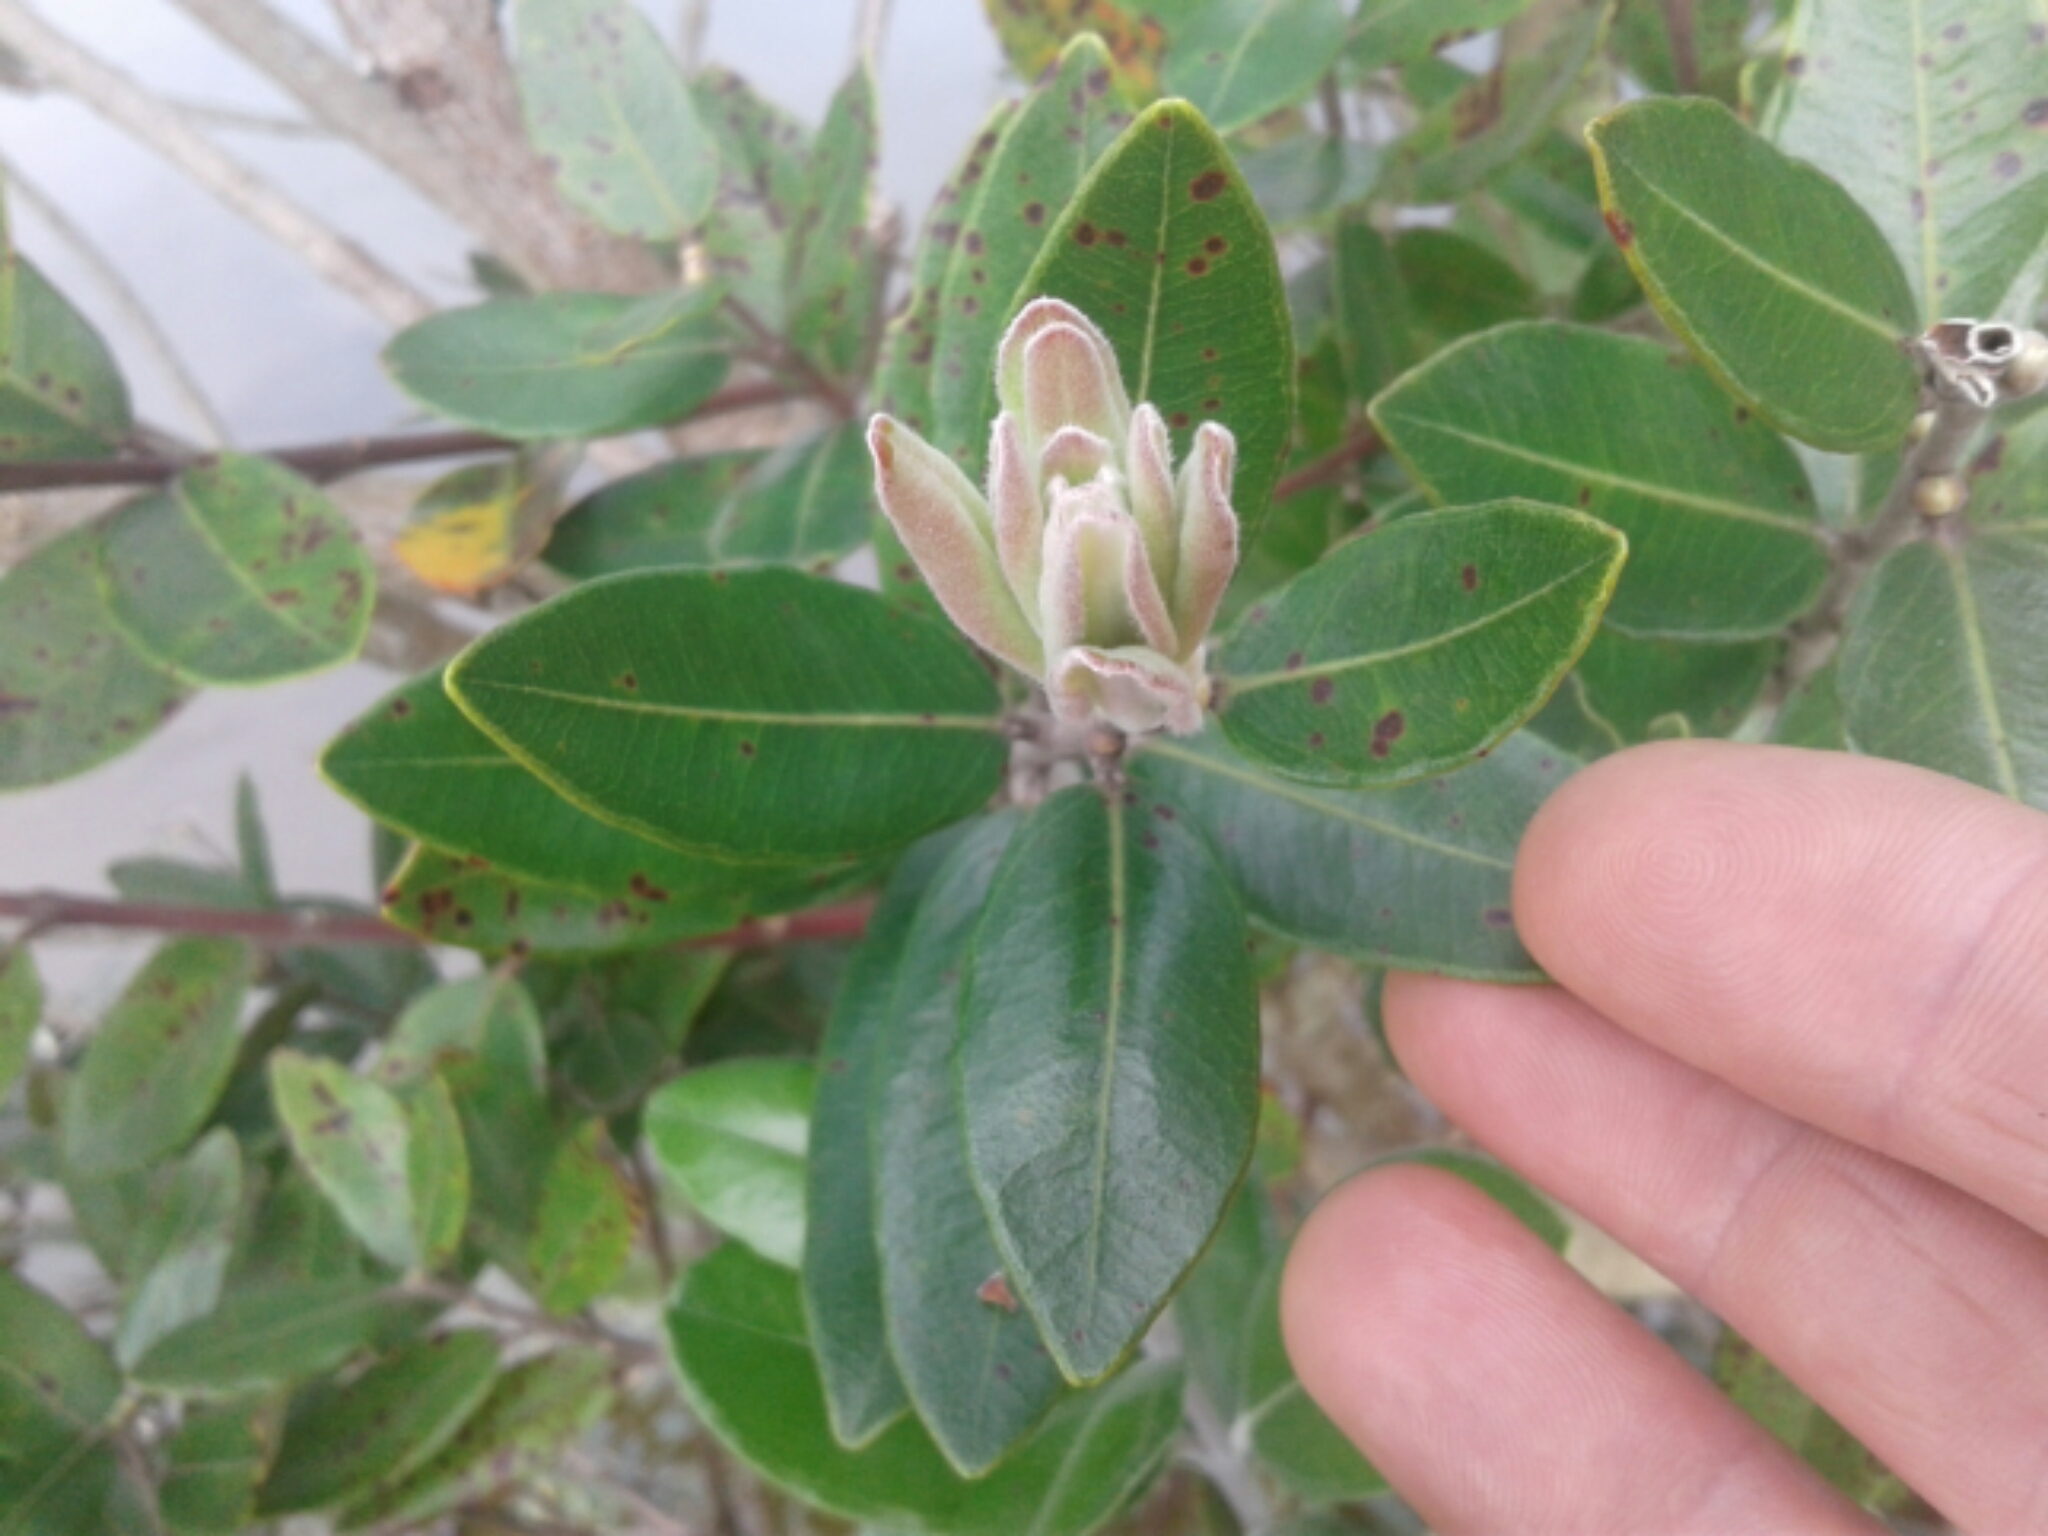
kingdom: Plantae
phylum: Tracheophyta
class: Magnoliopsida
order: Myrtales
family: Myrtaceae
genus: Metrosideros
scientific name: Metrosideros excelsa
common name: New zealand christmastree
